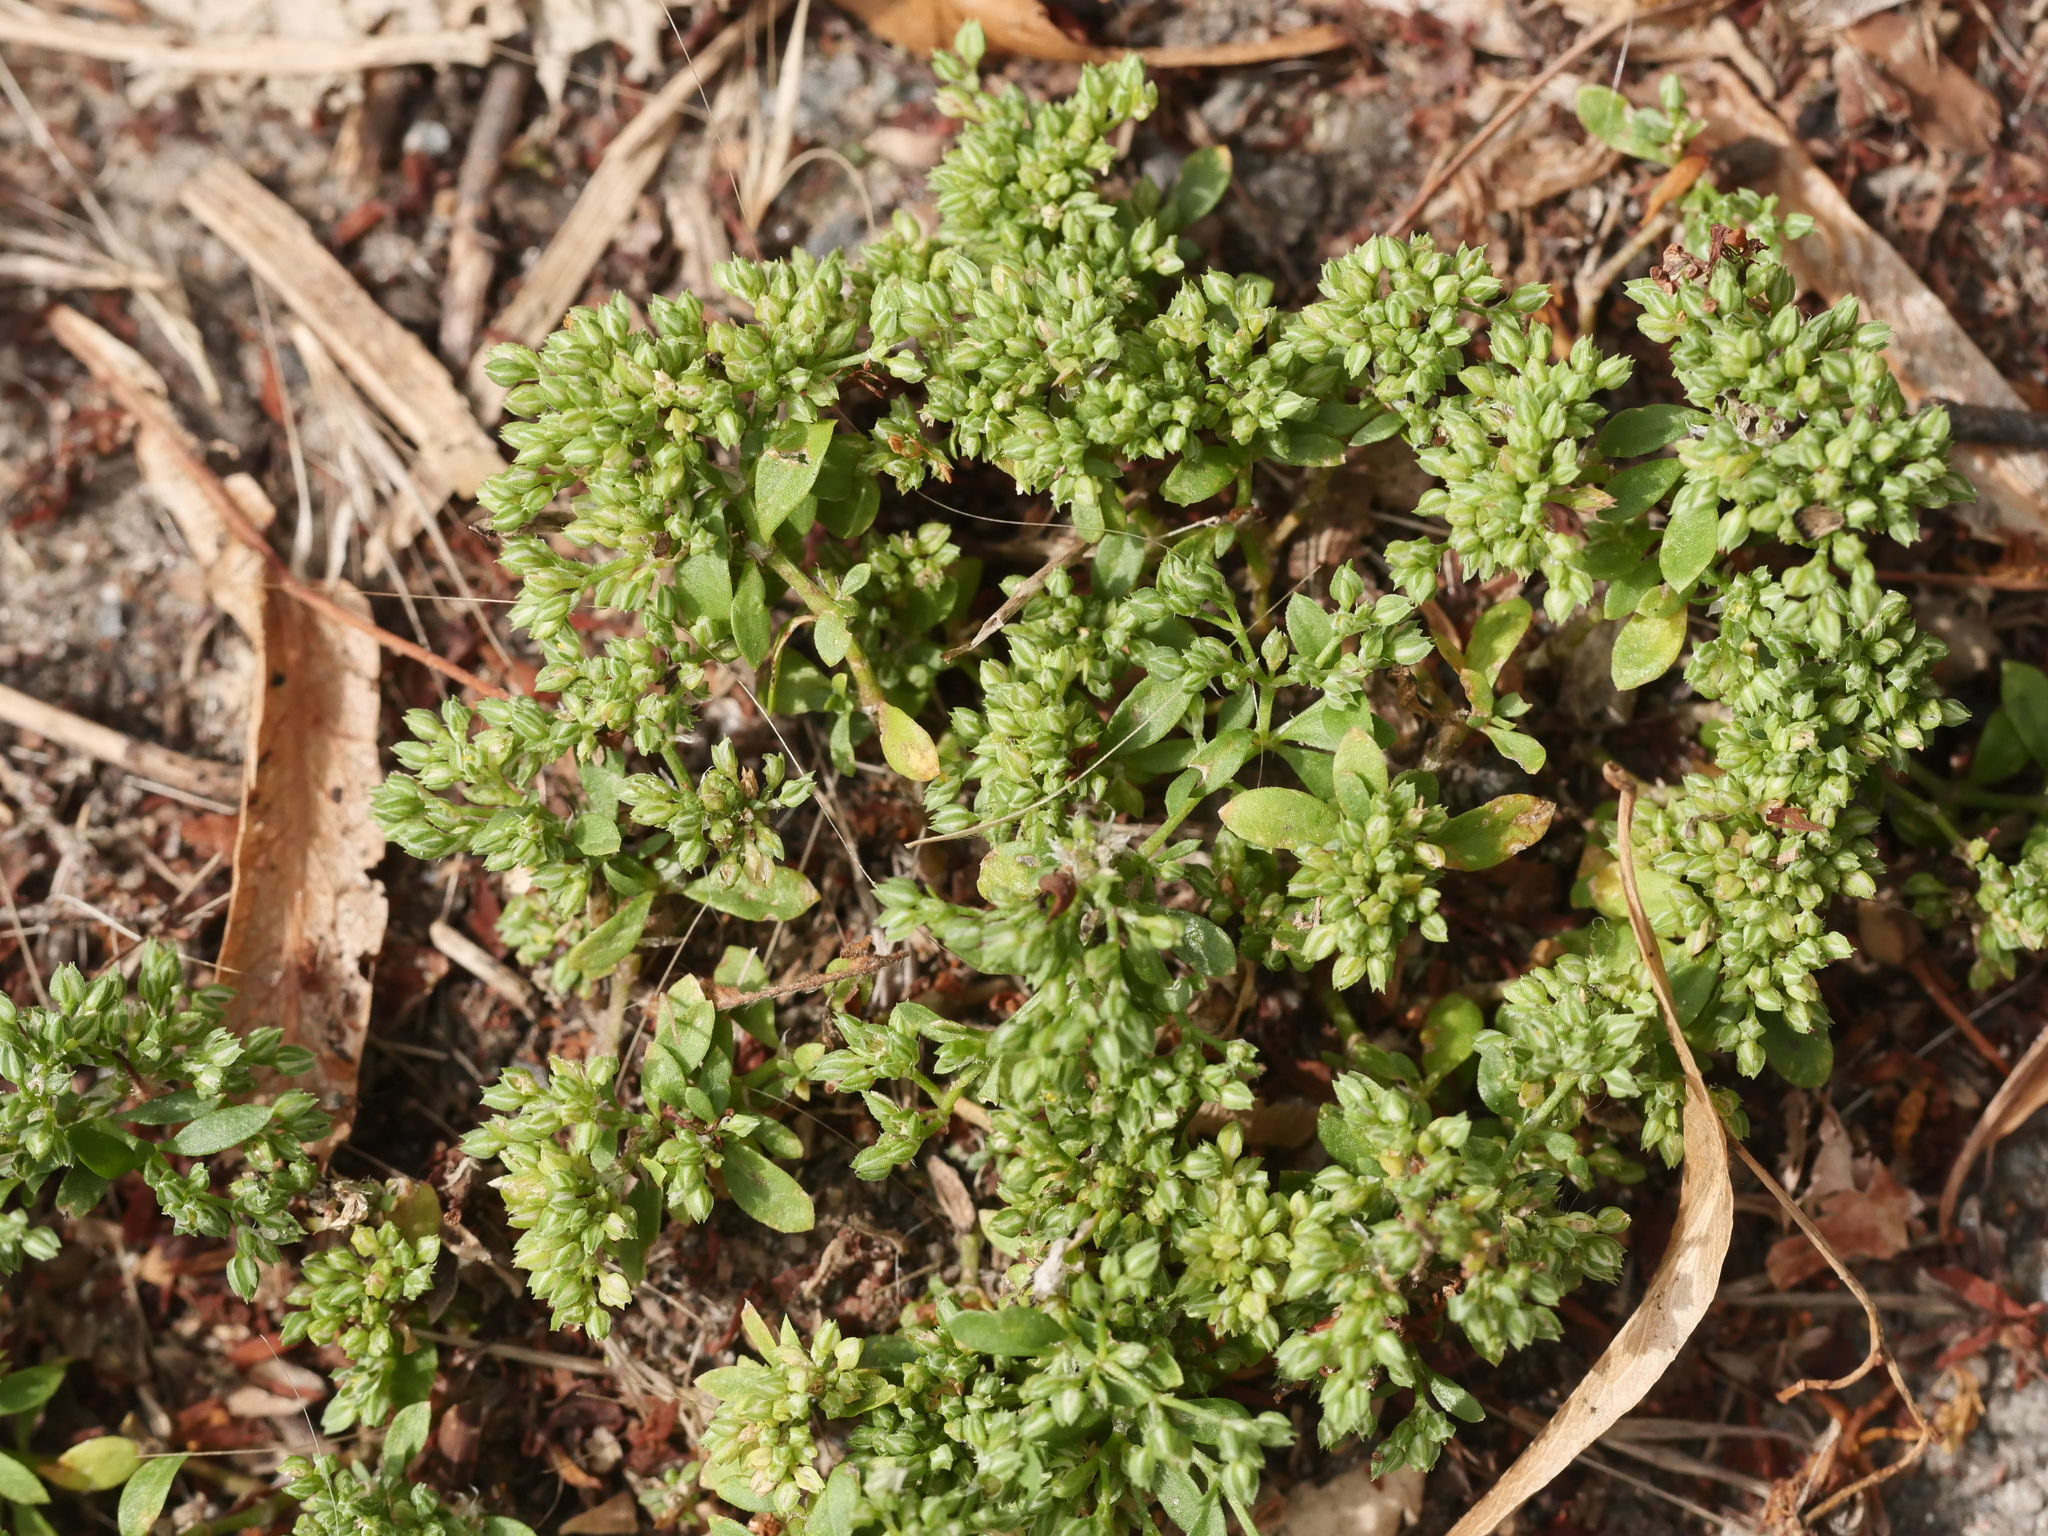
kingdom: Plantae
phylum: Tracheophyta
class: Magnoliopsida
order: Caryophyllales
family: Caryophyllaceae
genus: Polycarpon
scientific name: Polycarpon tetraphyllum
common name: Four-leaved all-seed
